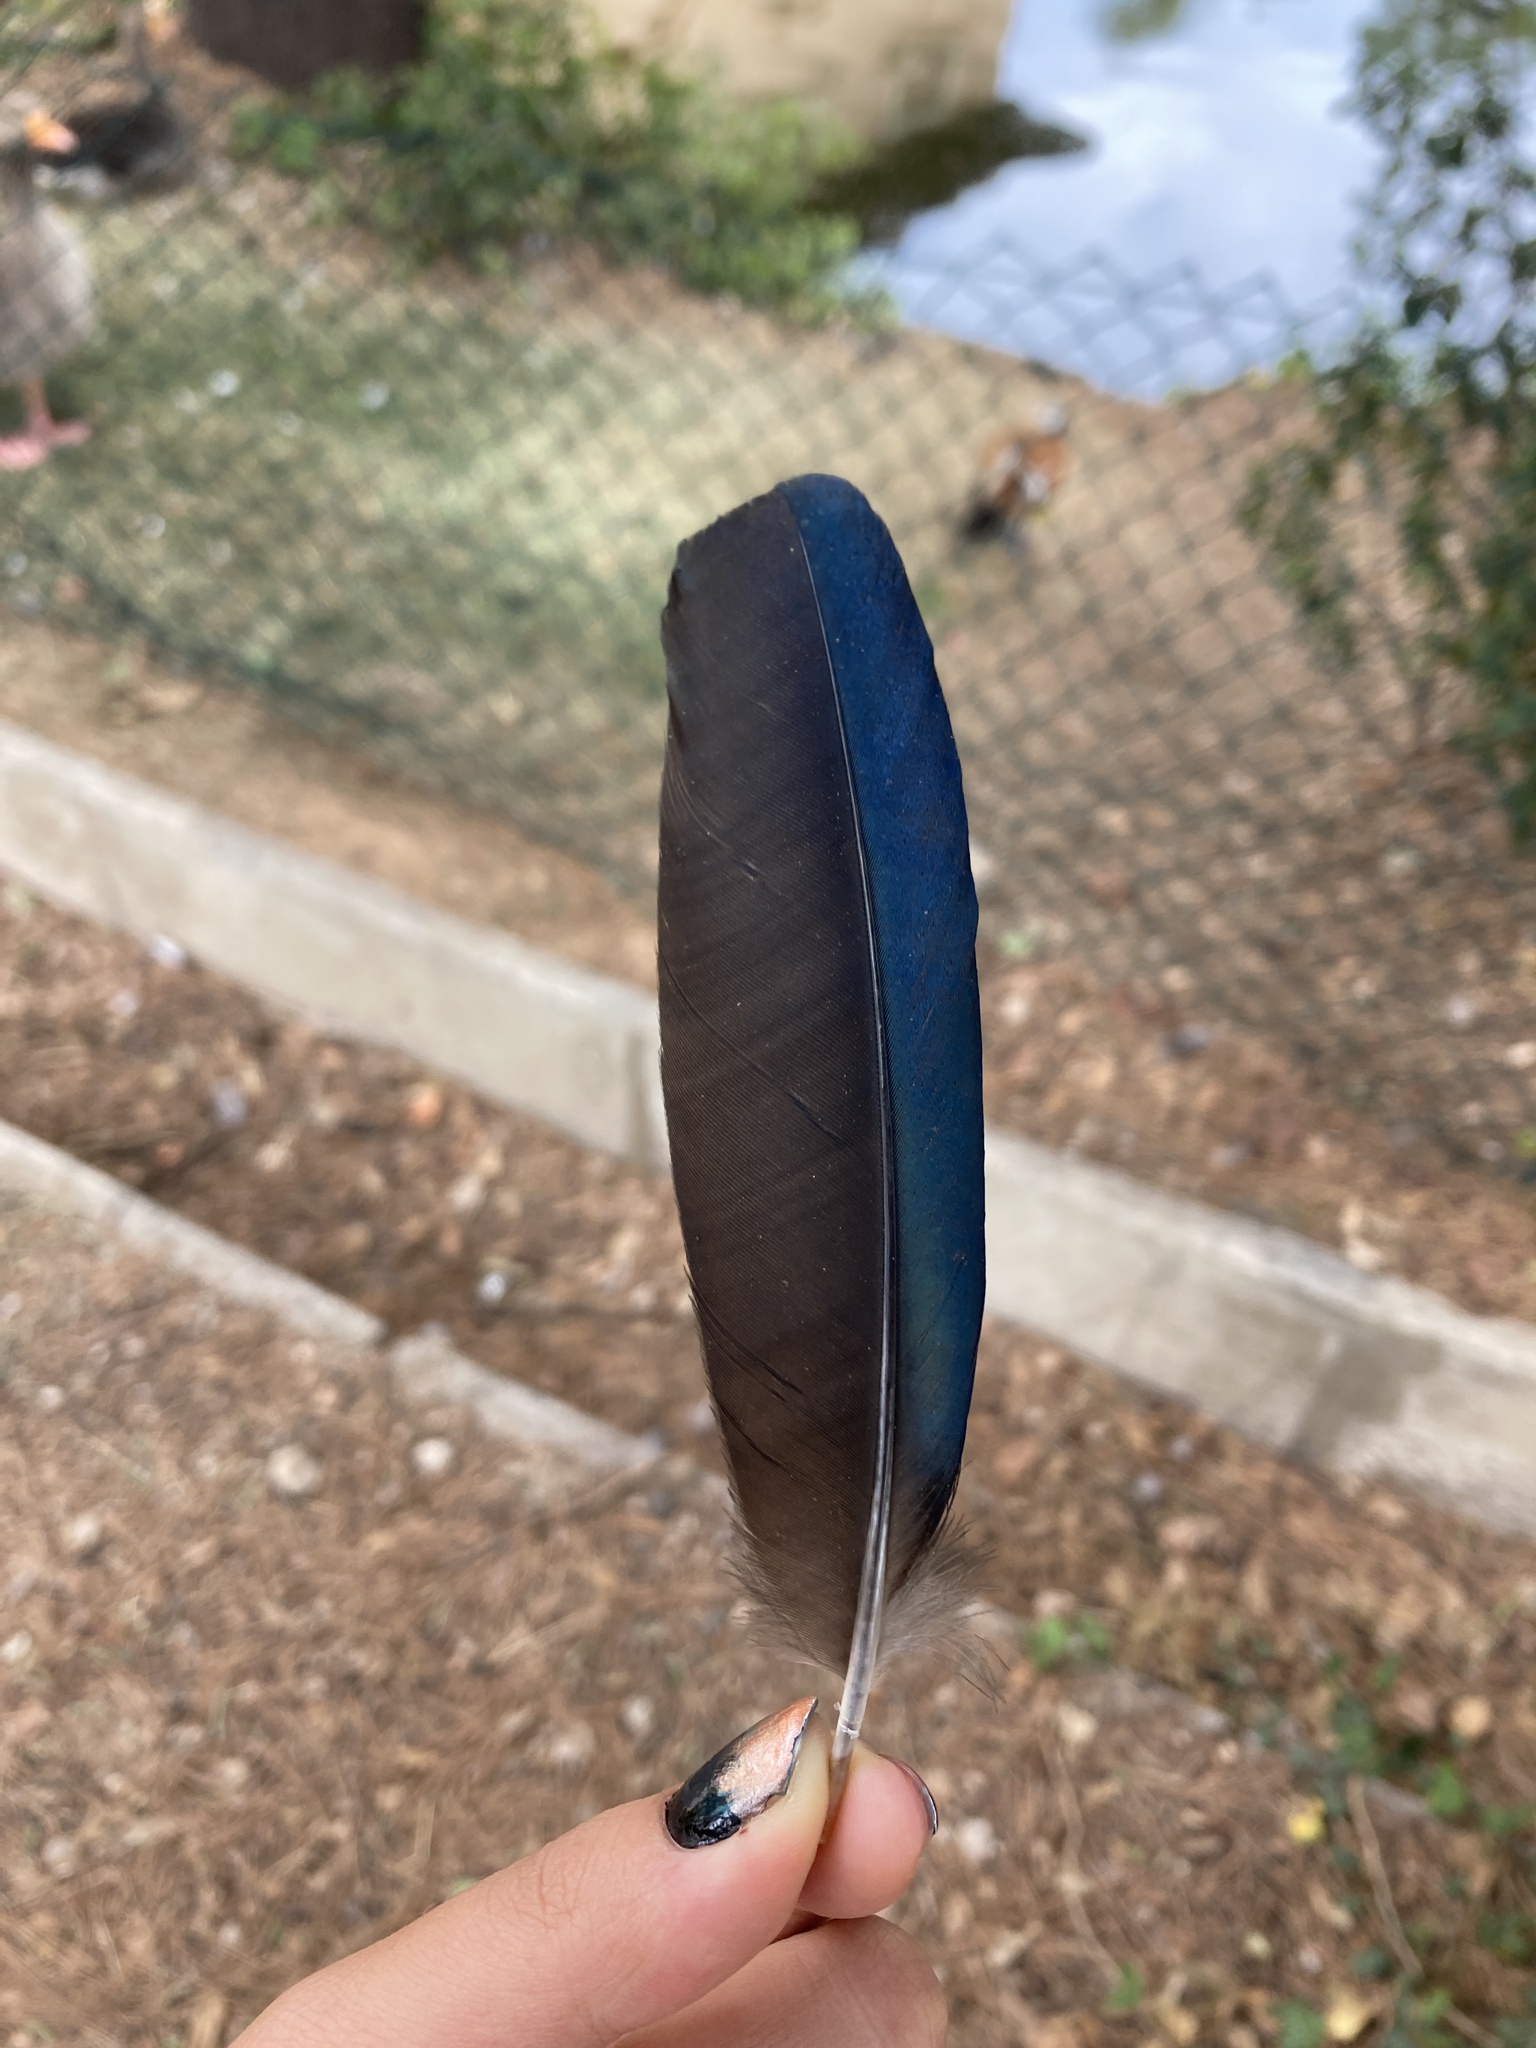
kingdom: Animalia
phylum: Chordata
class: Aves
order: Passeriformes
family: Corvidae
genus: Pica
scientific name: Pica pica
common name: Eurasian magpie
